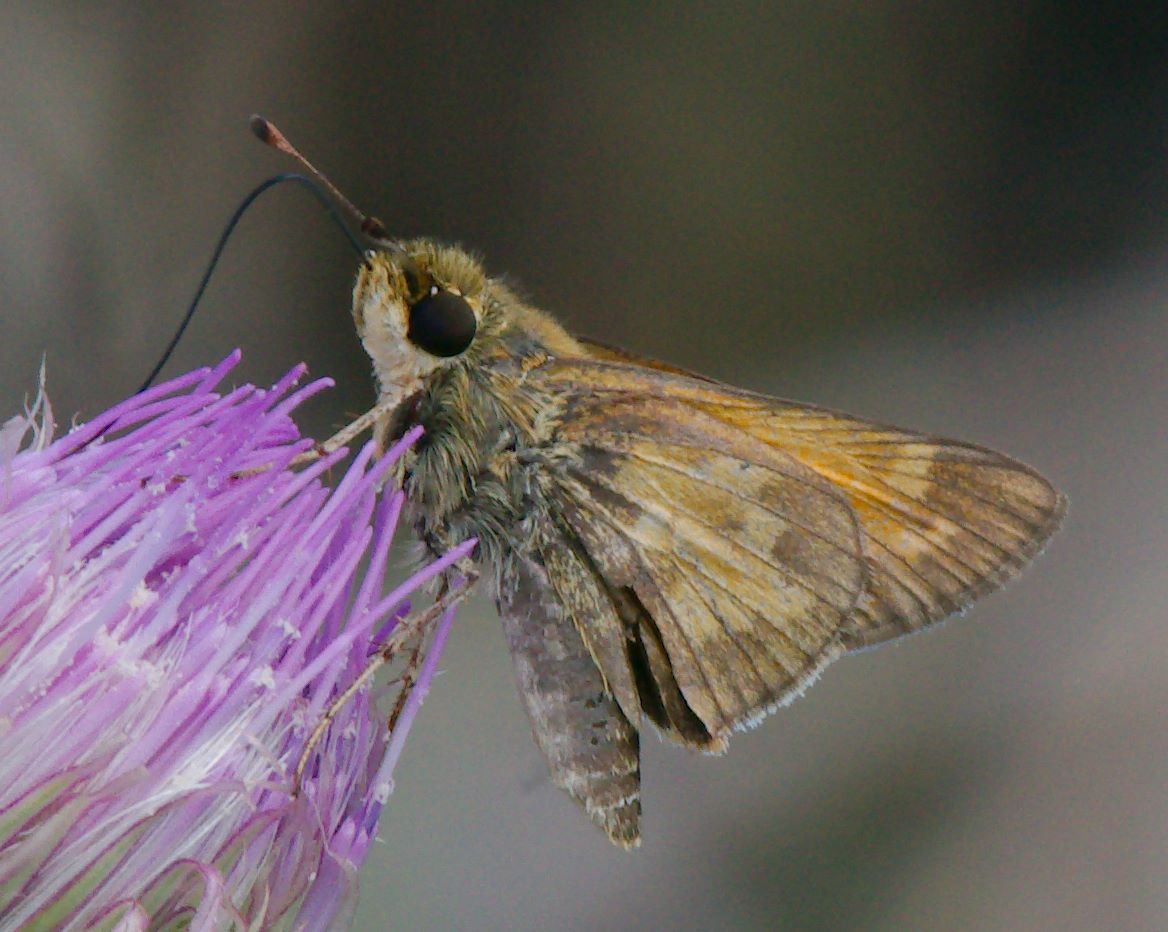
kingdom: Animalia
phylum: Arthropoda
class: Insecta
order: Lepidoptera
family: Hesperiidae
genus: Atalopedes
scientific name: Atalopedes
